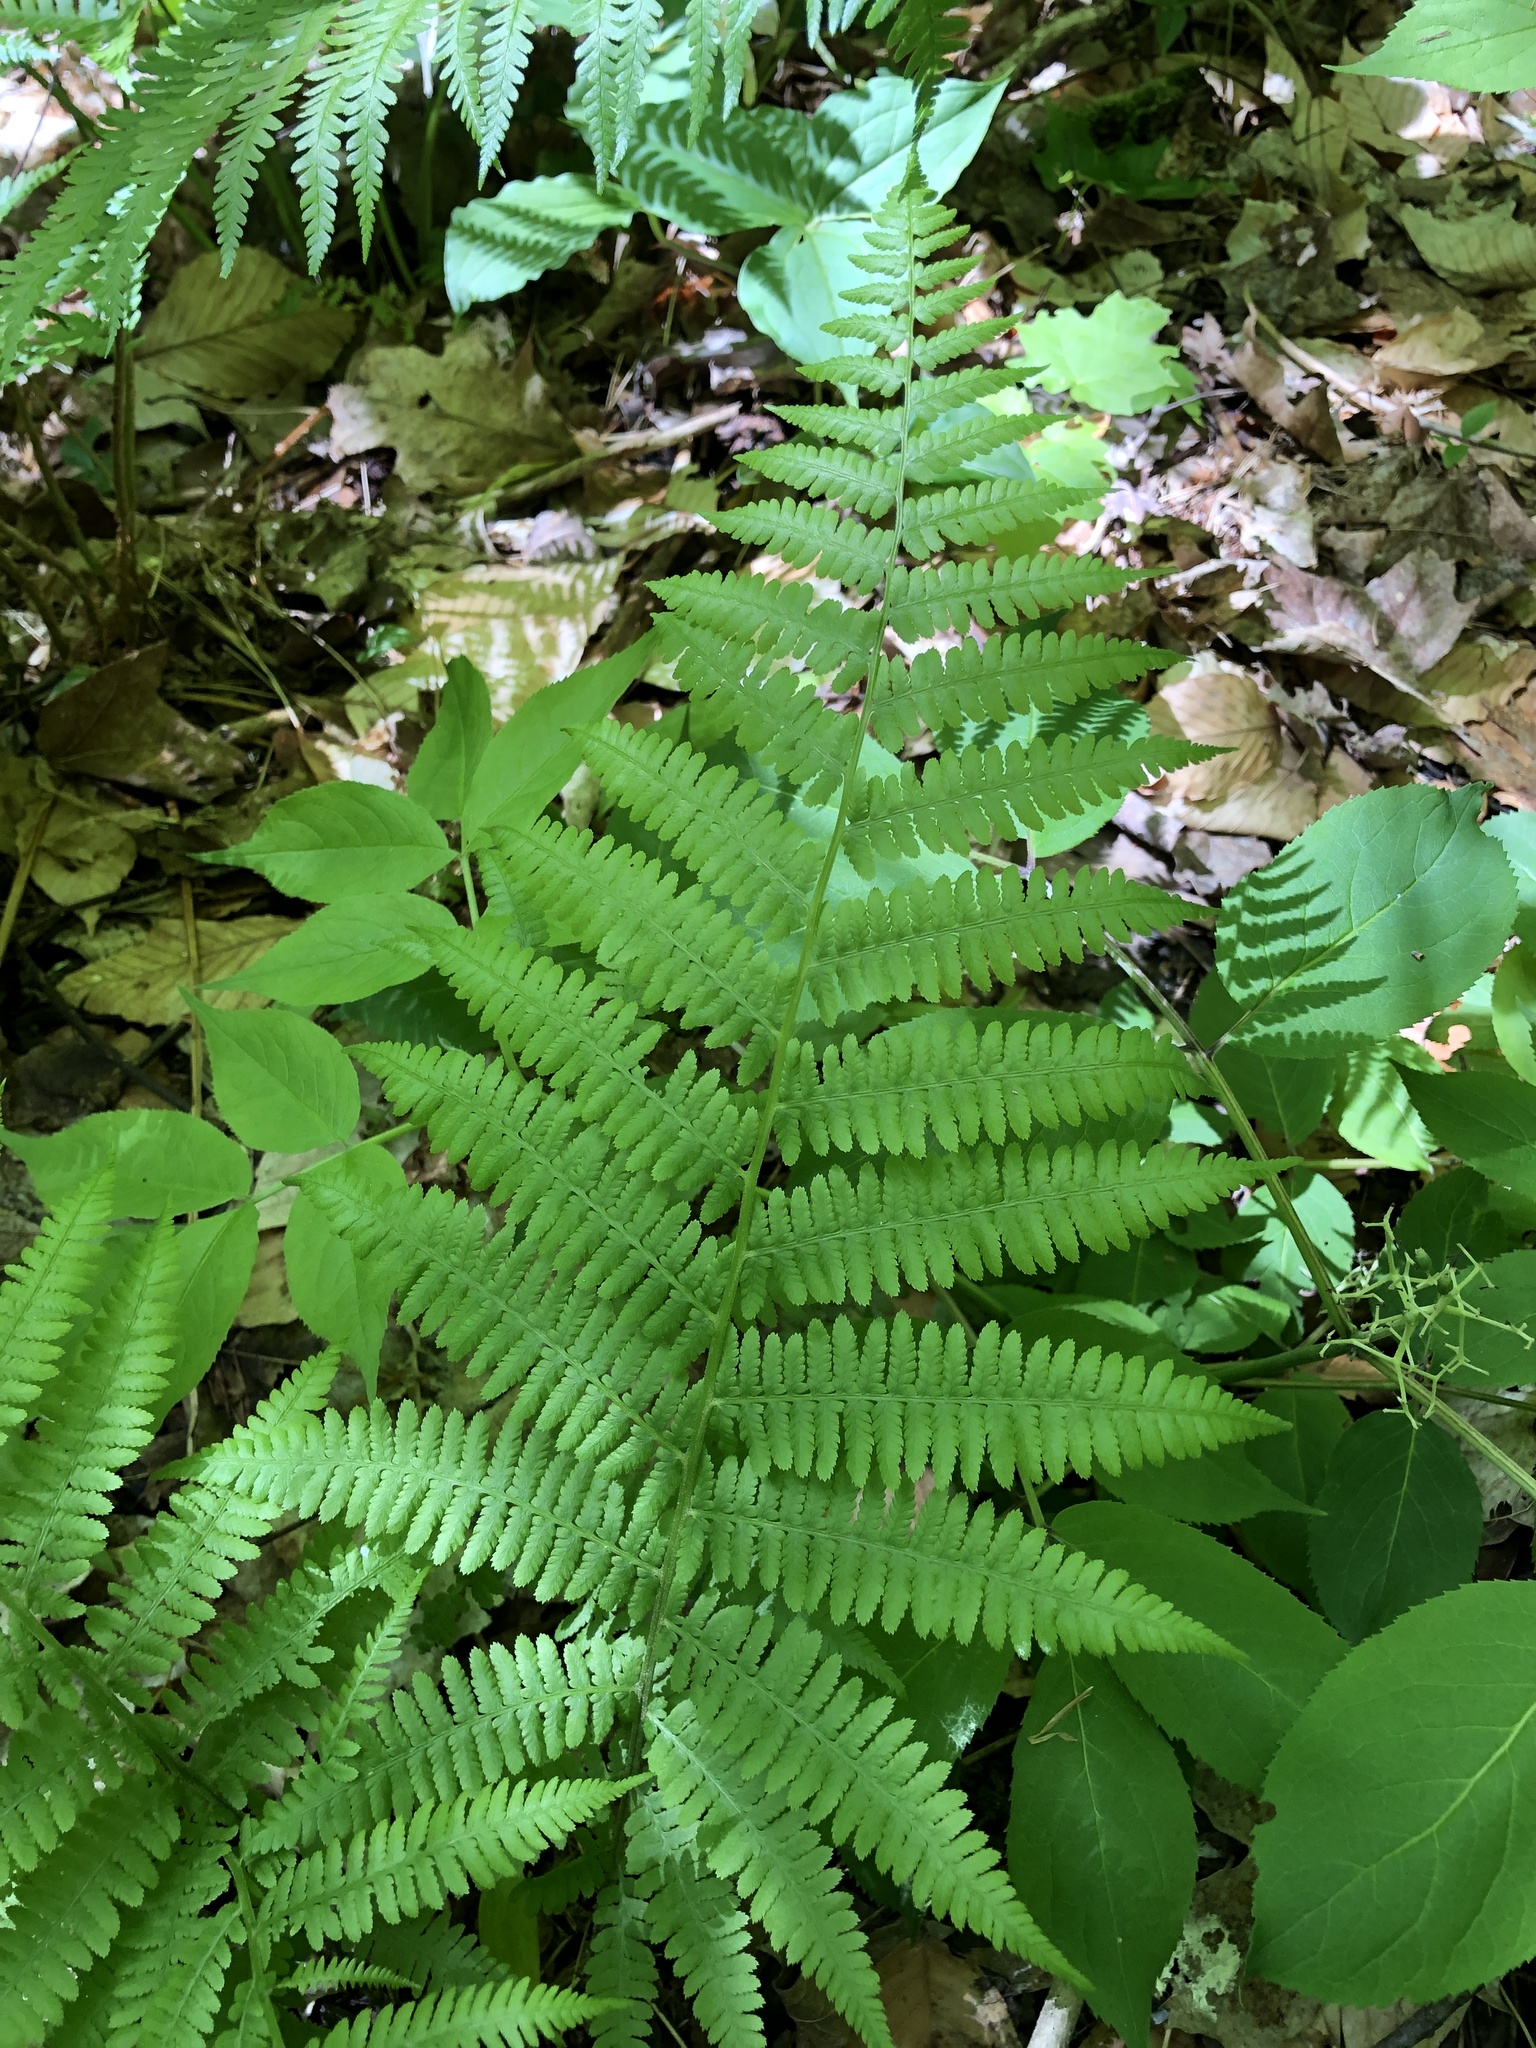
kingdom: Plantae
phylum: Tracheophyta
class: Polypodiopsida
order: Polypodiales
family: Athyriaceae
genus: Athyrium
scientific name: Athyrium angustum
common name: Northern lady fern
